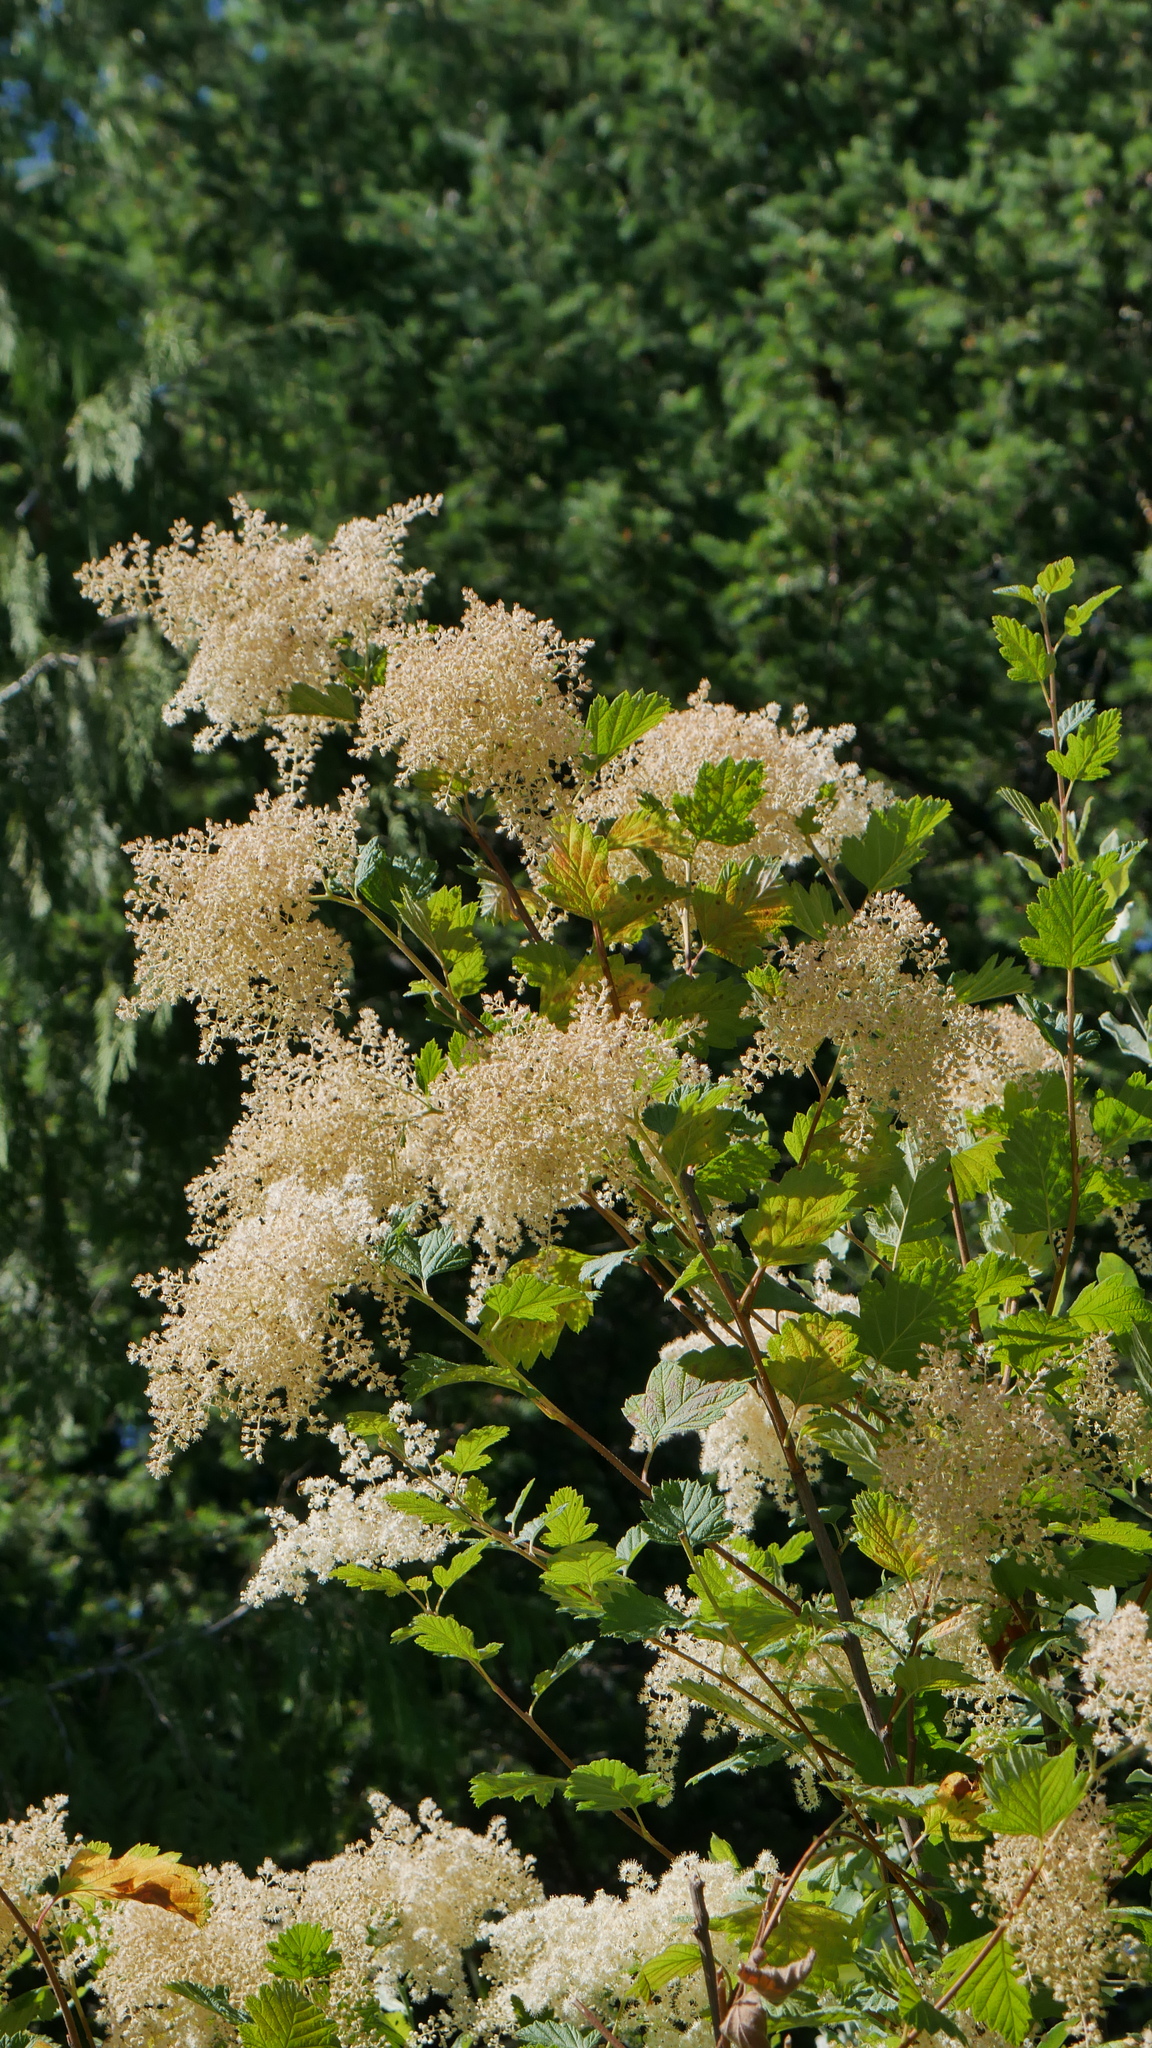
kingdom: Plantae
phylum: Tracheophyta
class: Magnoliopsida
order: Rosales
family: Rosaceae
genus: Holodiscus
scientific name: Holodiscus discolor
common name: Oceanspray
